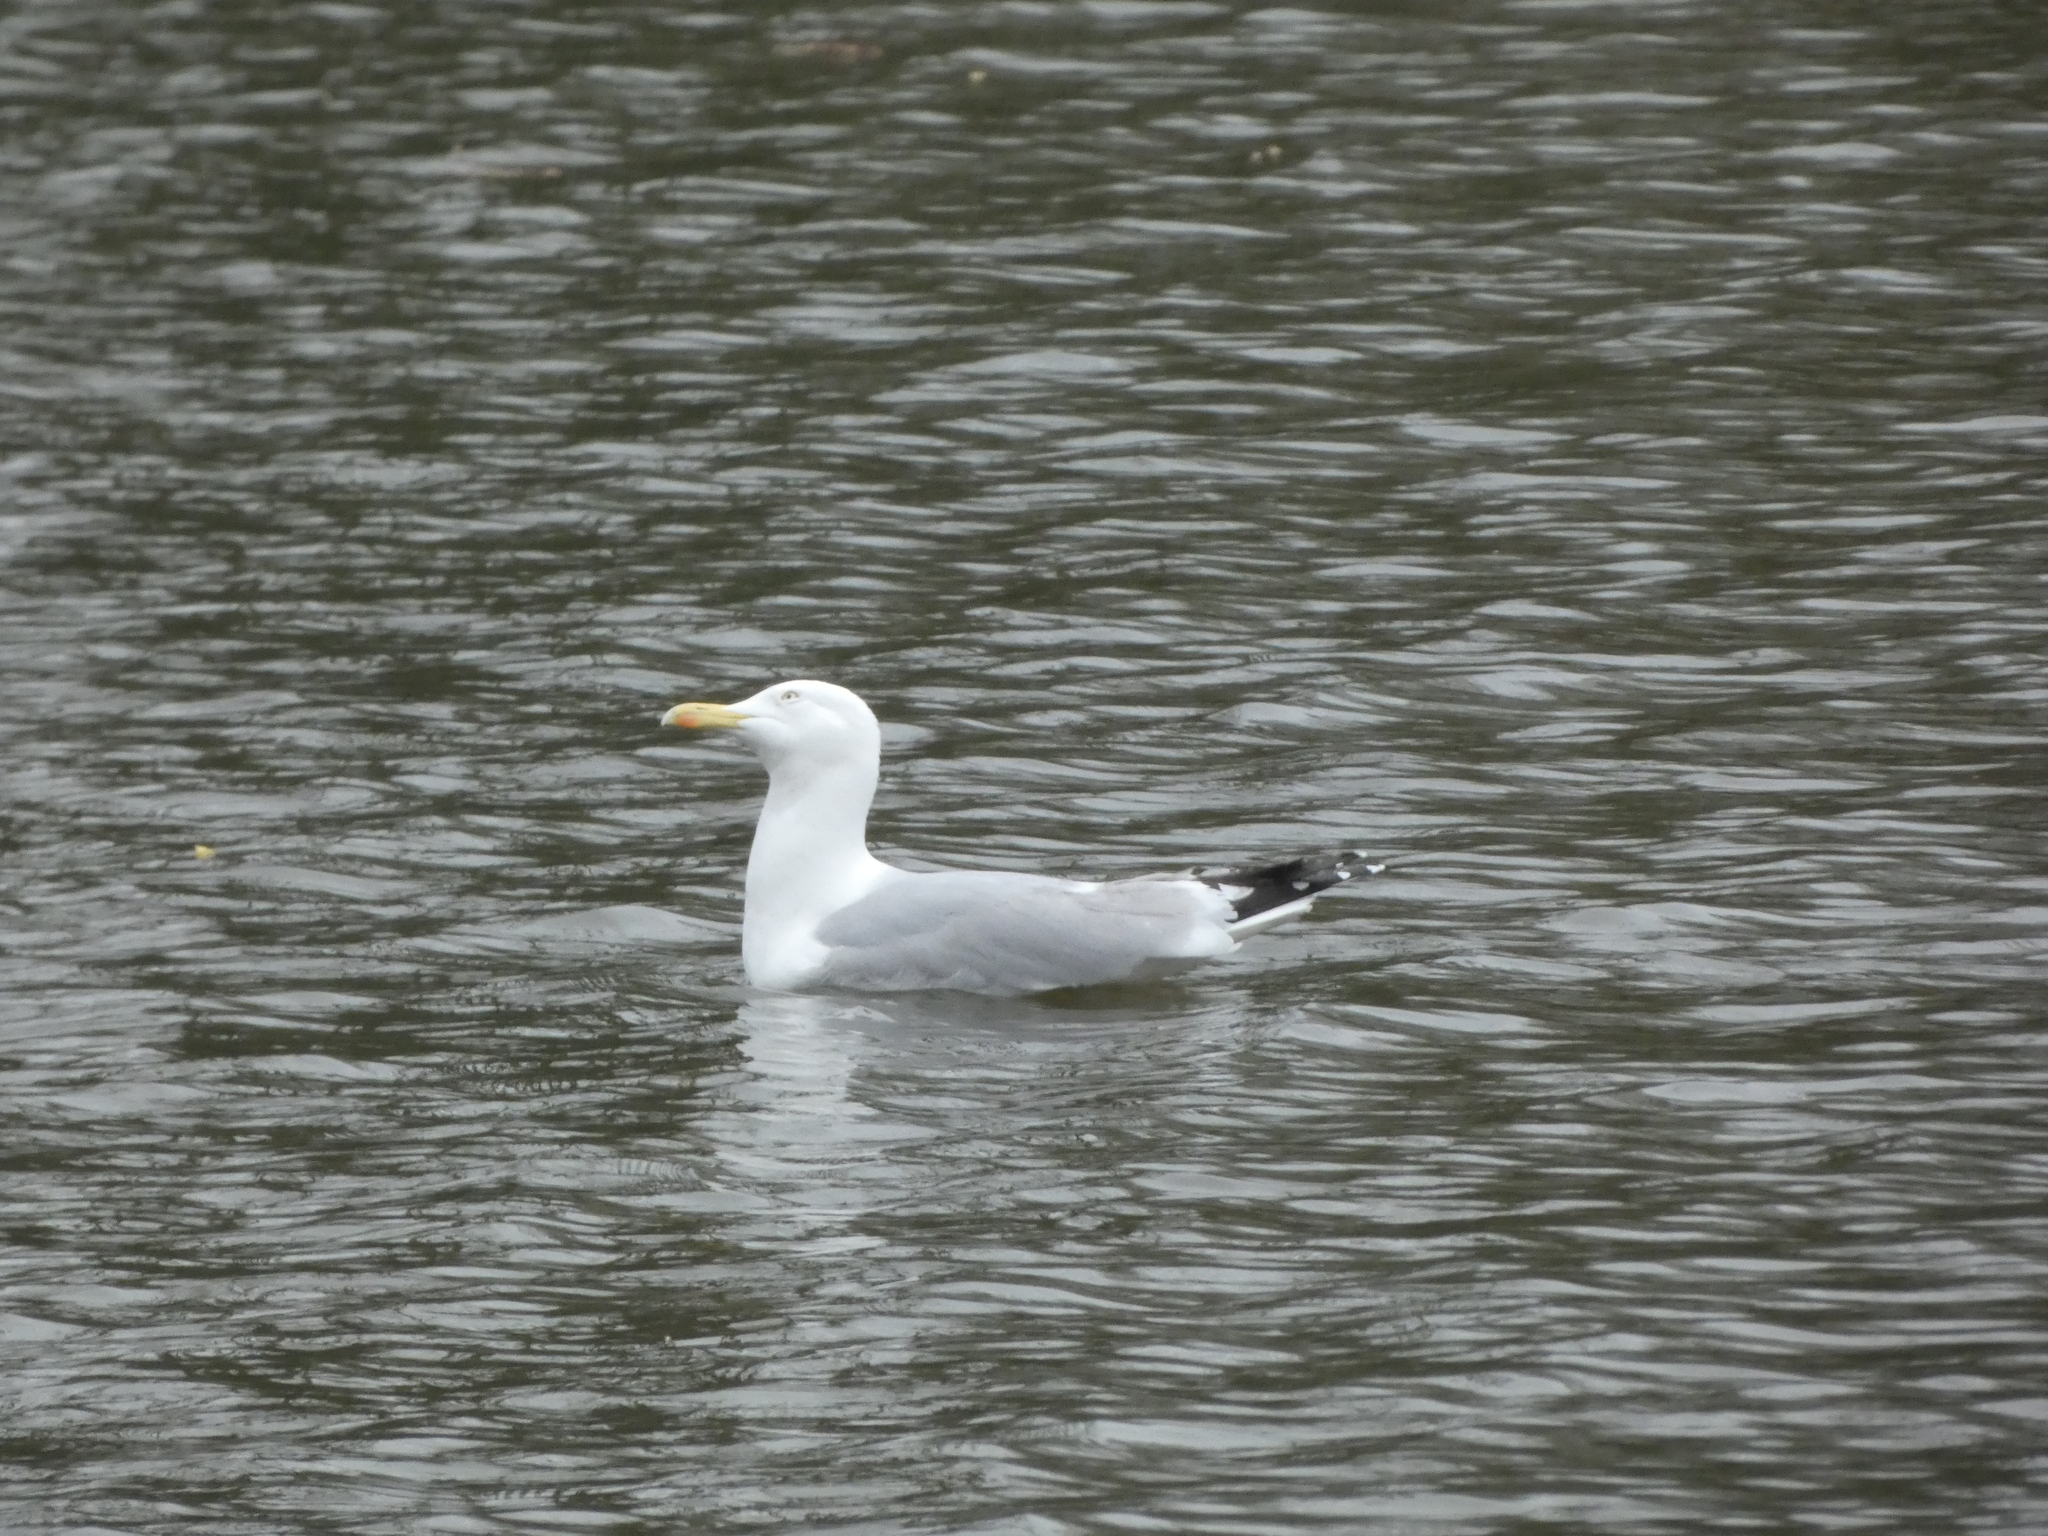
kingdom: Animalia
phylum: Chordata
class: Aves
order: Charadriiformes
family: Laridae
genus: Larus
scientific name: Larus argentatus
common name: Herring gull
